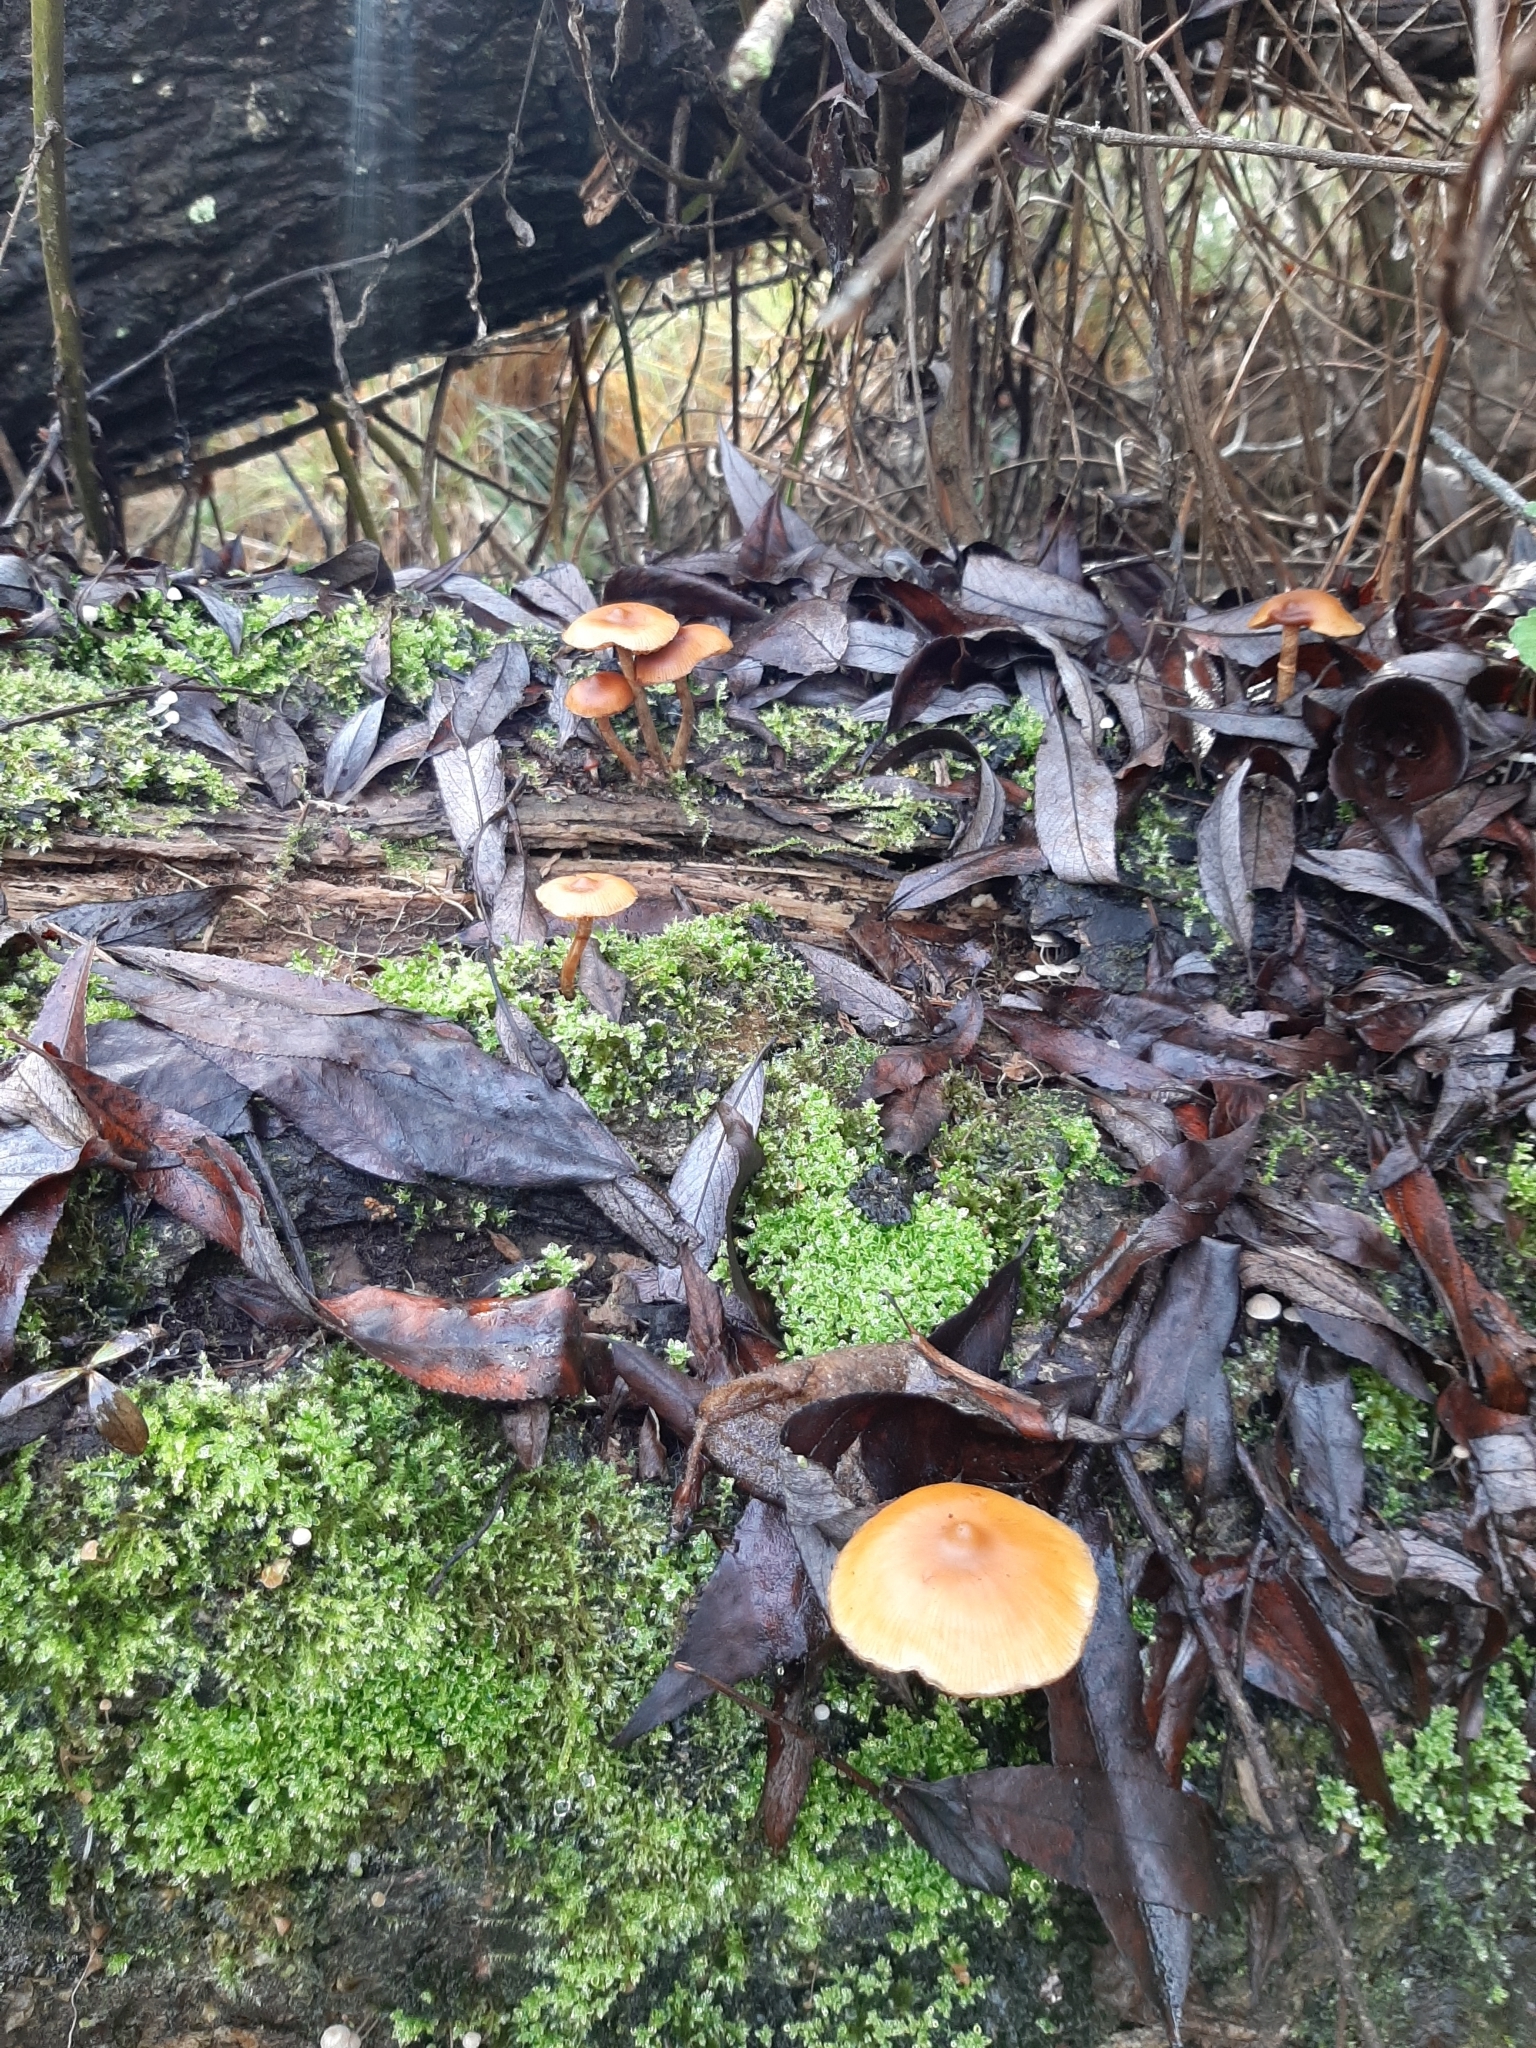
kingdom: Fungi
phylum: Basidiomycota
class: Agaricomycetes
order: Agaricales
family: Hymenogastraceae
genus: Galerina
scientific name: Galerina patagonica
